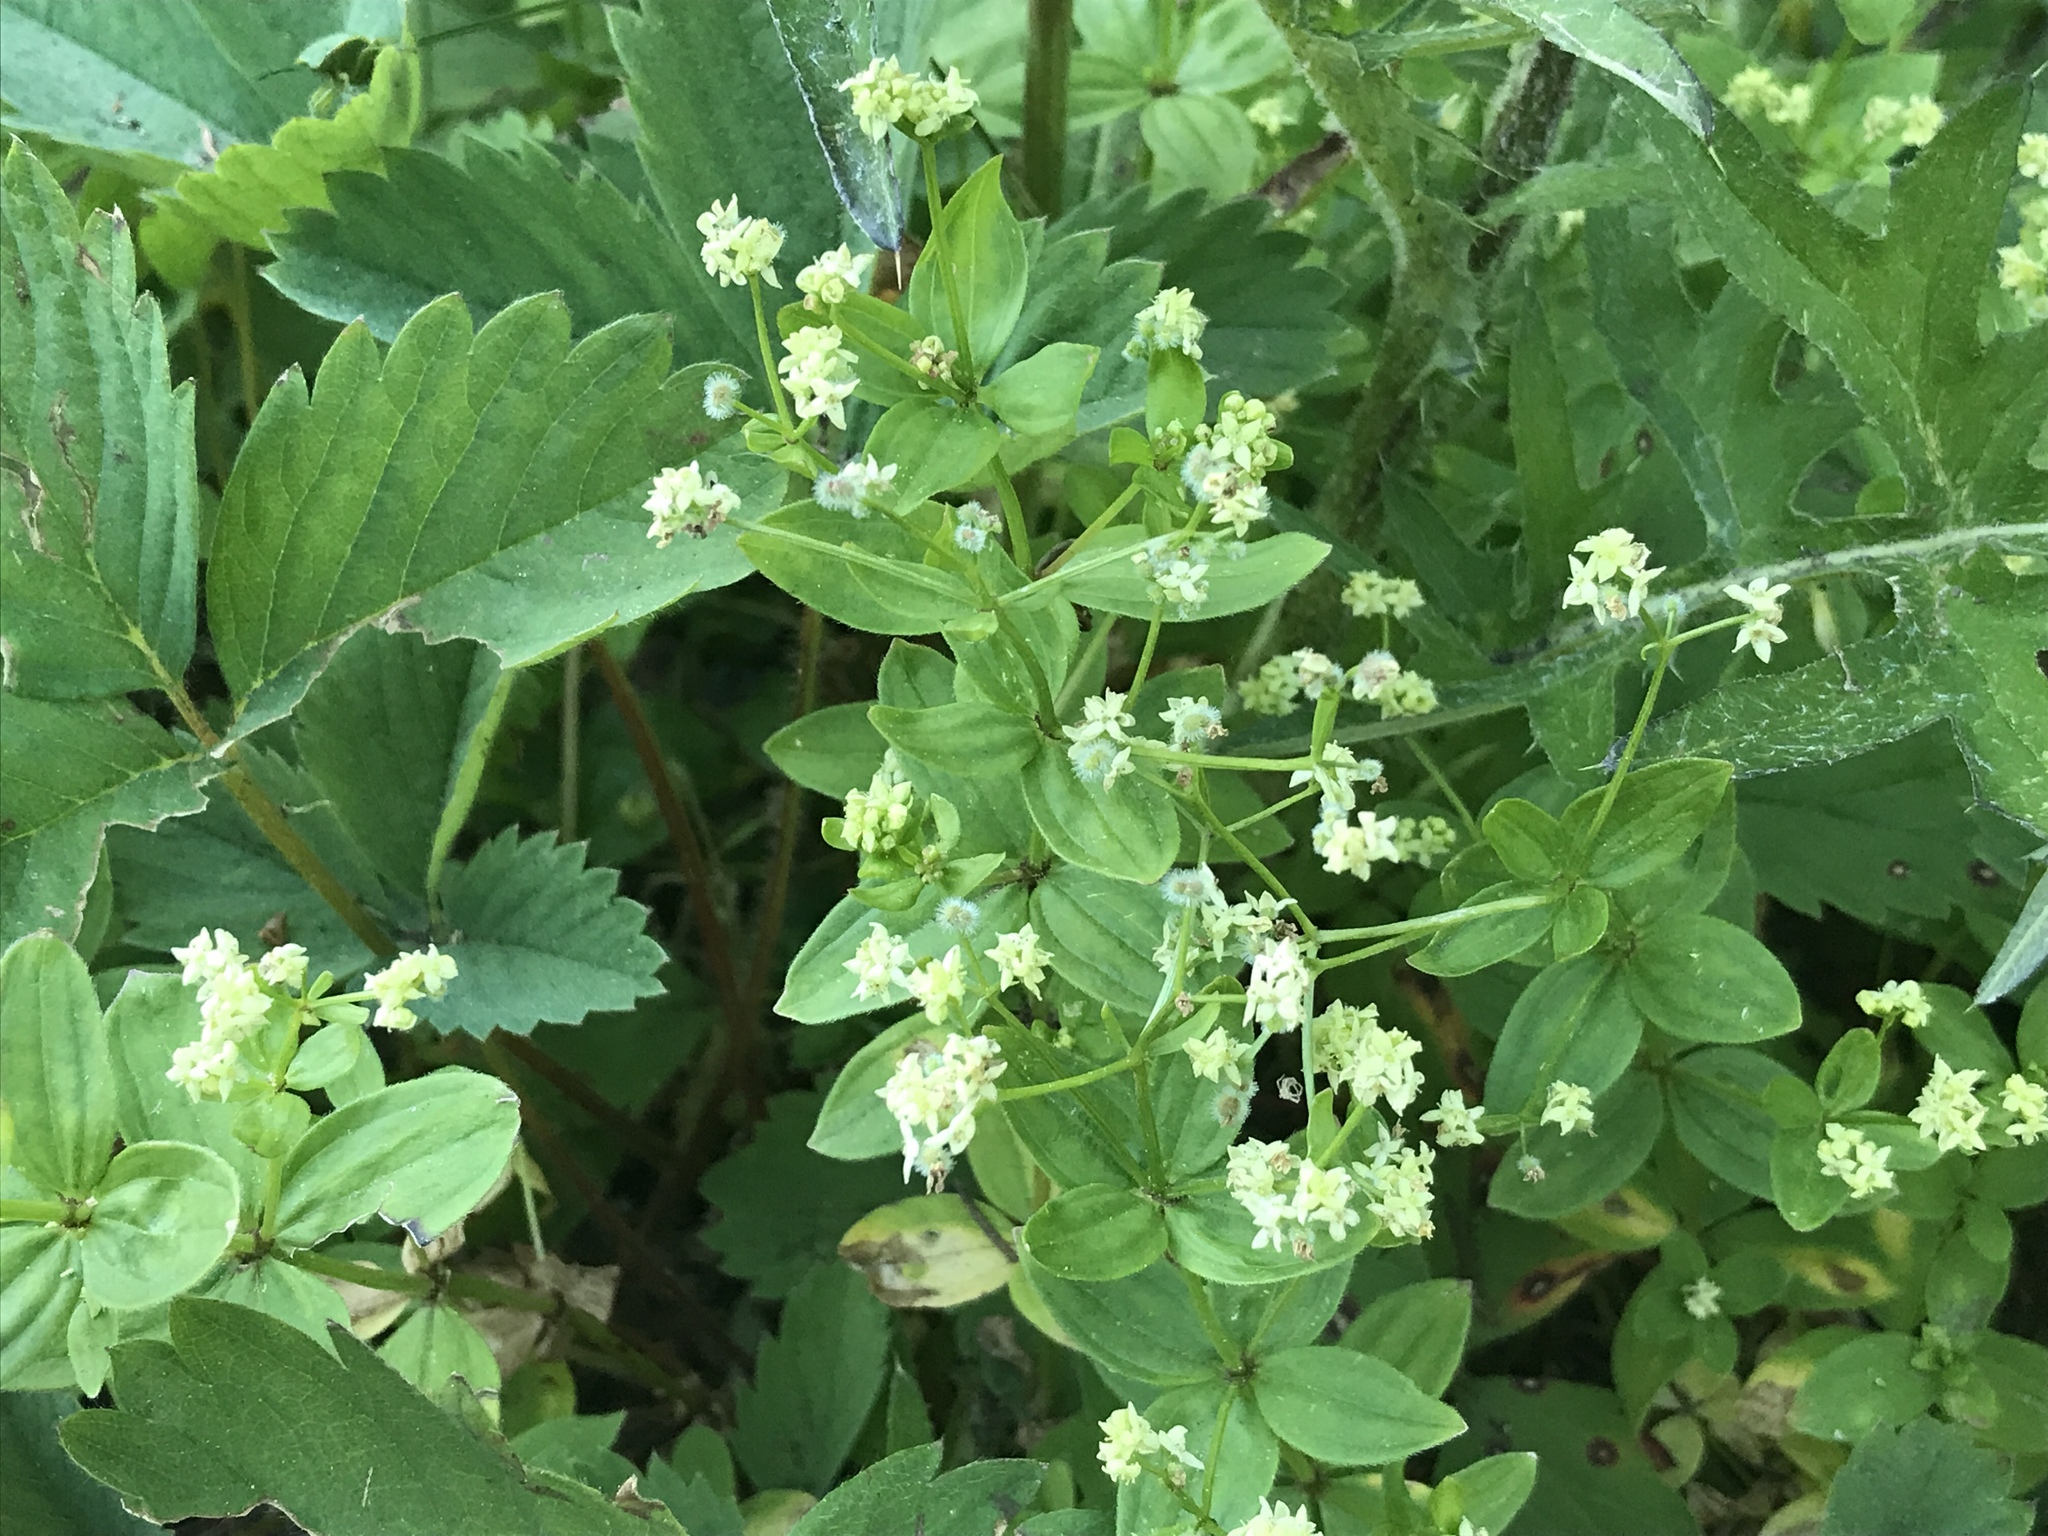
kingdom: Plantae
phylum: Tracheophyta
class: Magnoliopsida
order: Gentianales
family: Rubiaceae
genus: Galium
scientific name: Galium oreganum
